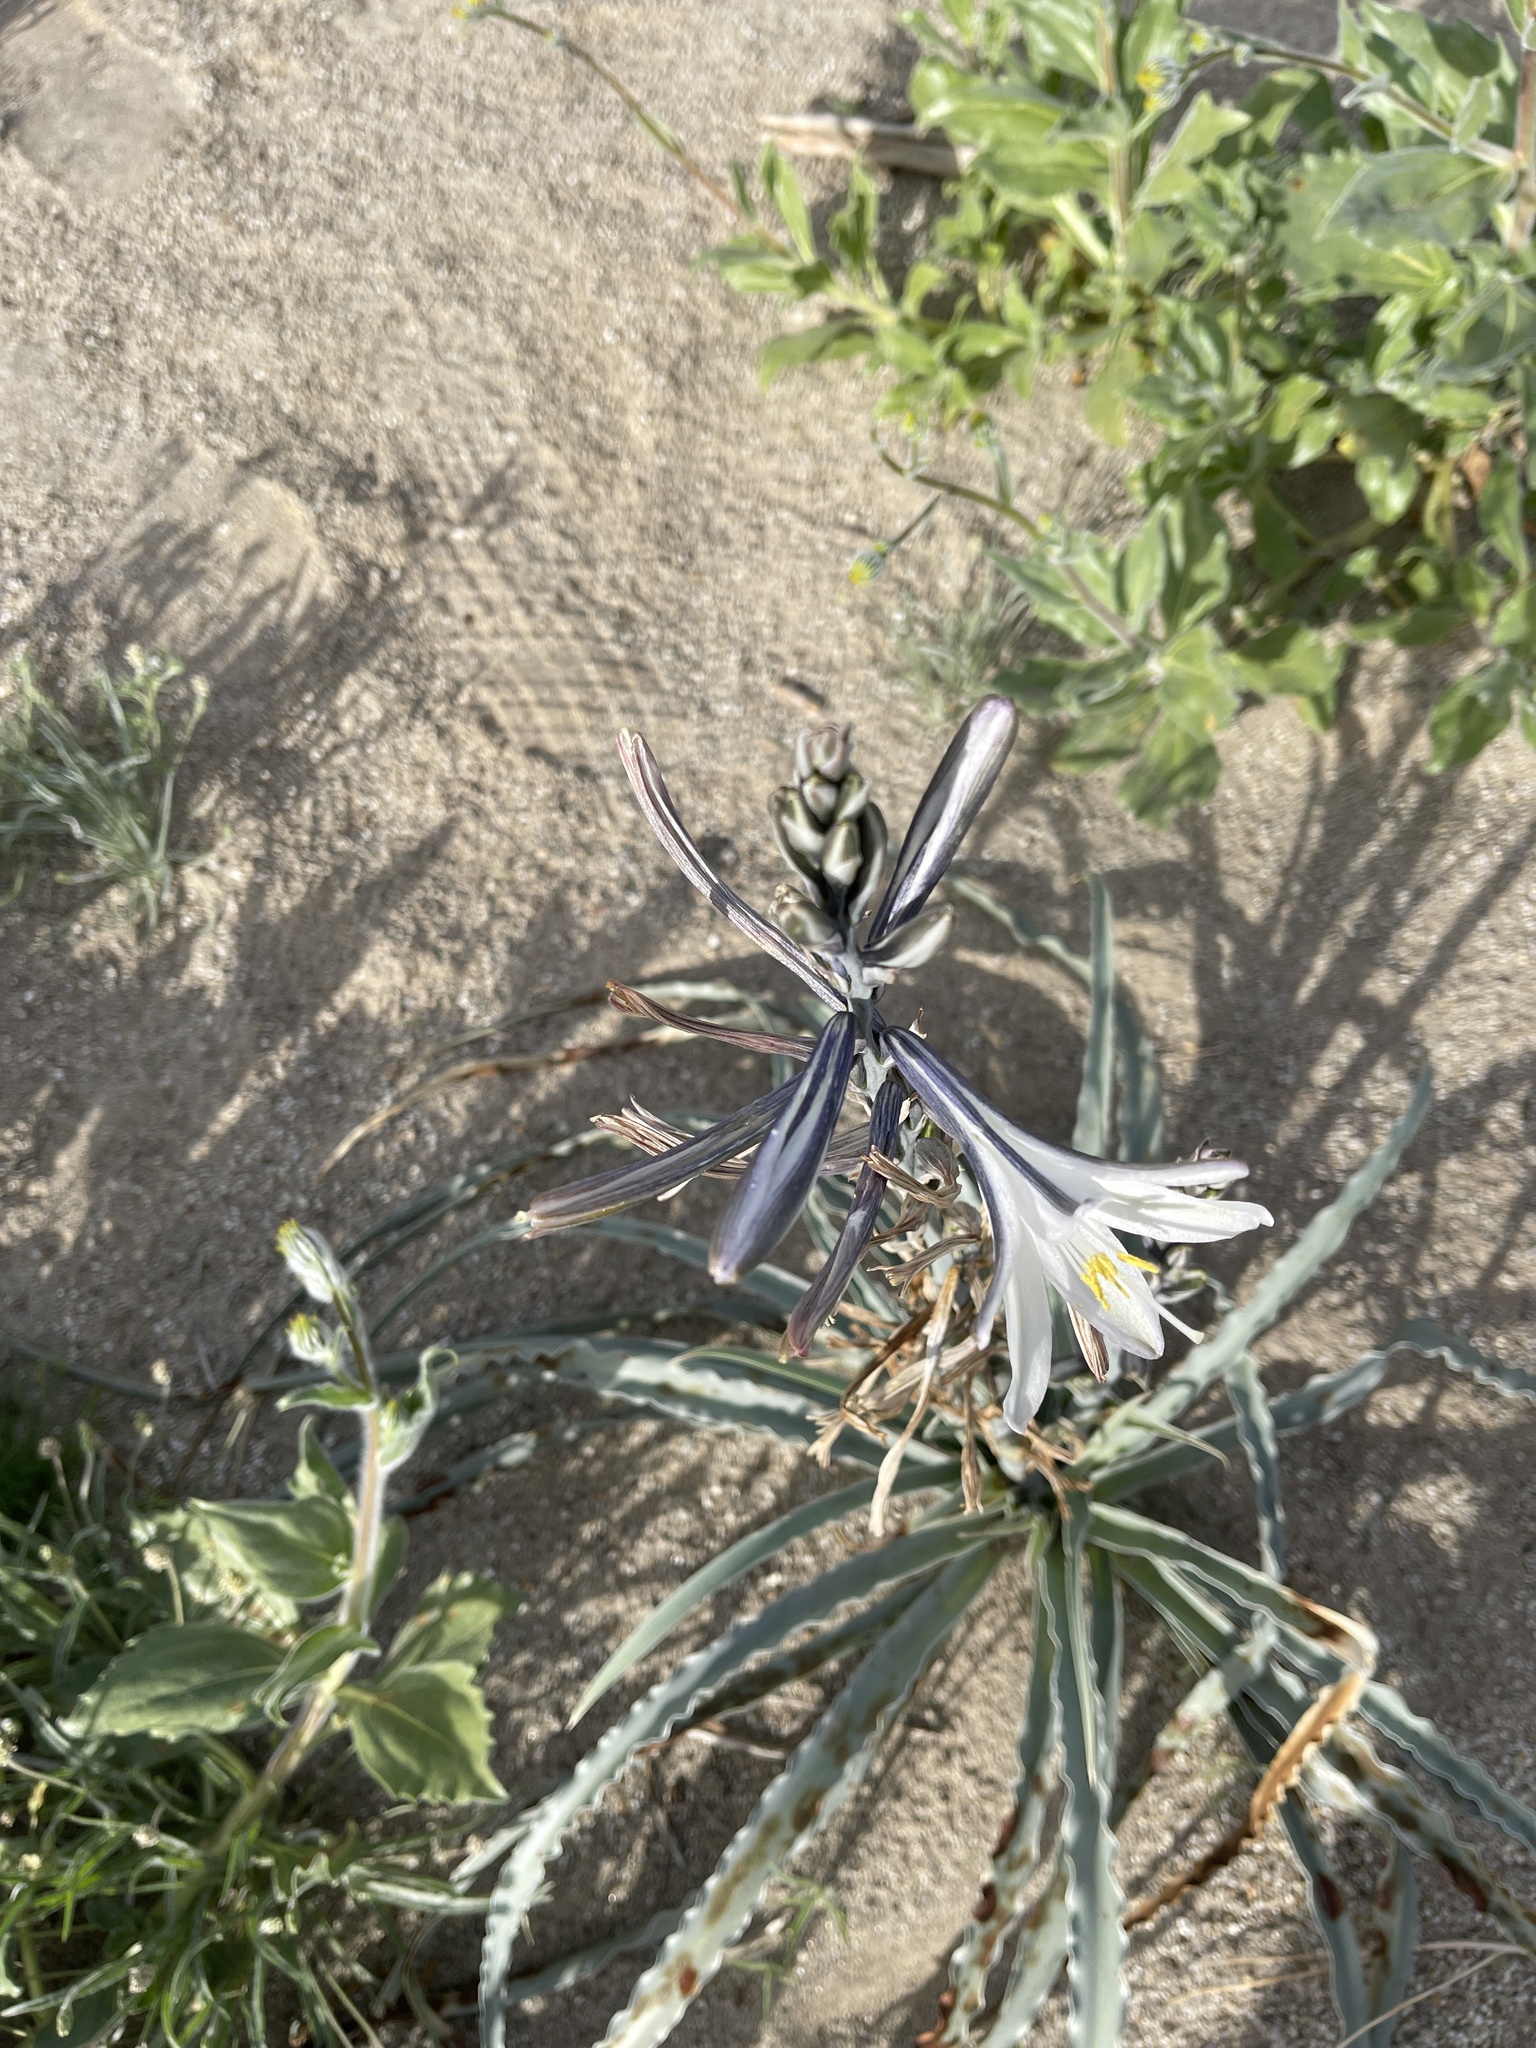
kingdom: Plantae
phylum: Tracheophyta
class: Liliopsida
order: Asparagales
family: Asparagaceae
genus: Hesperocallis
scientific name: Hesperocallis undulata
